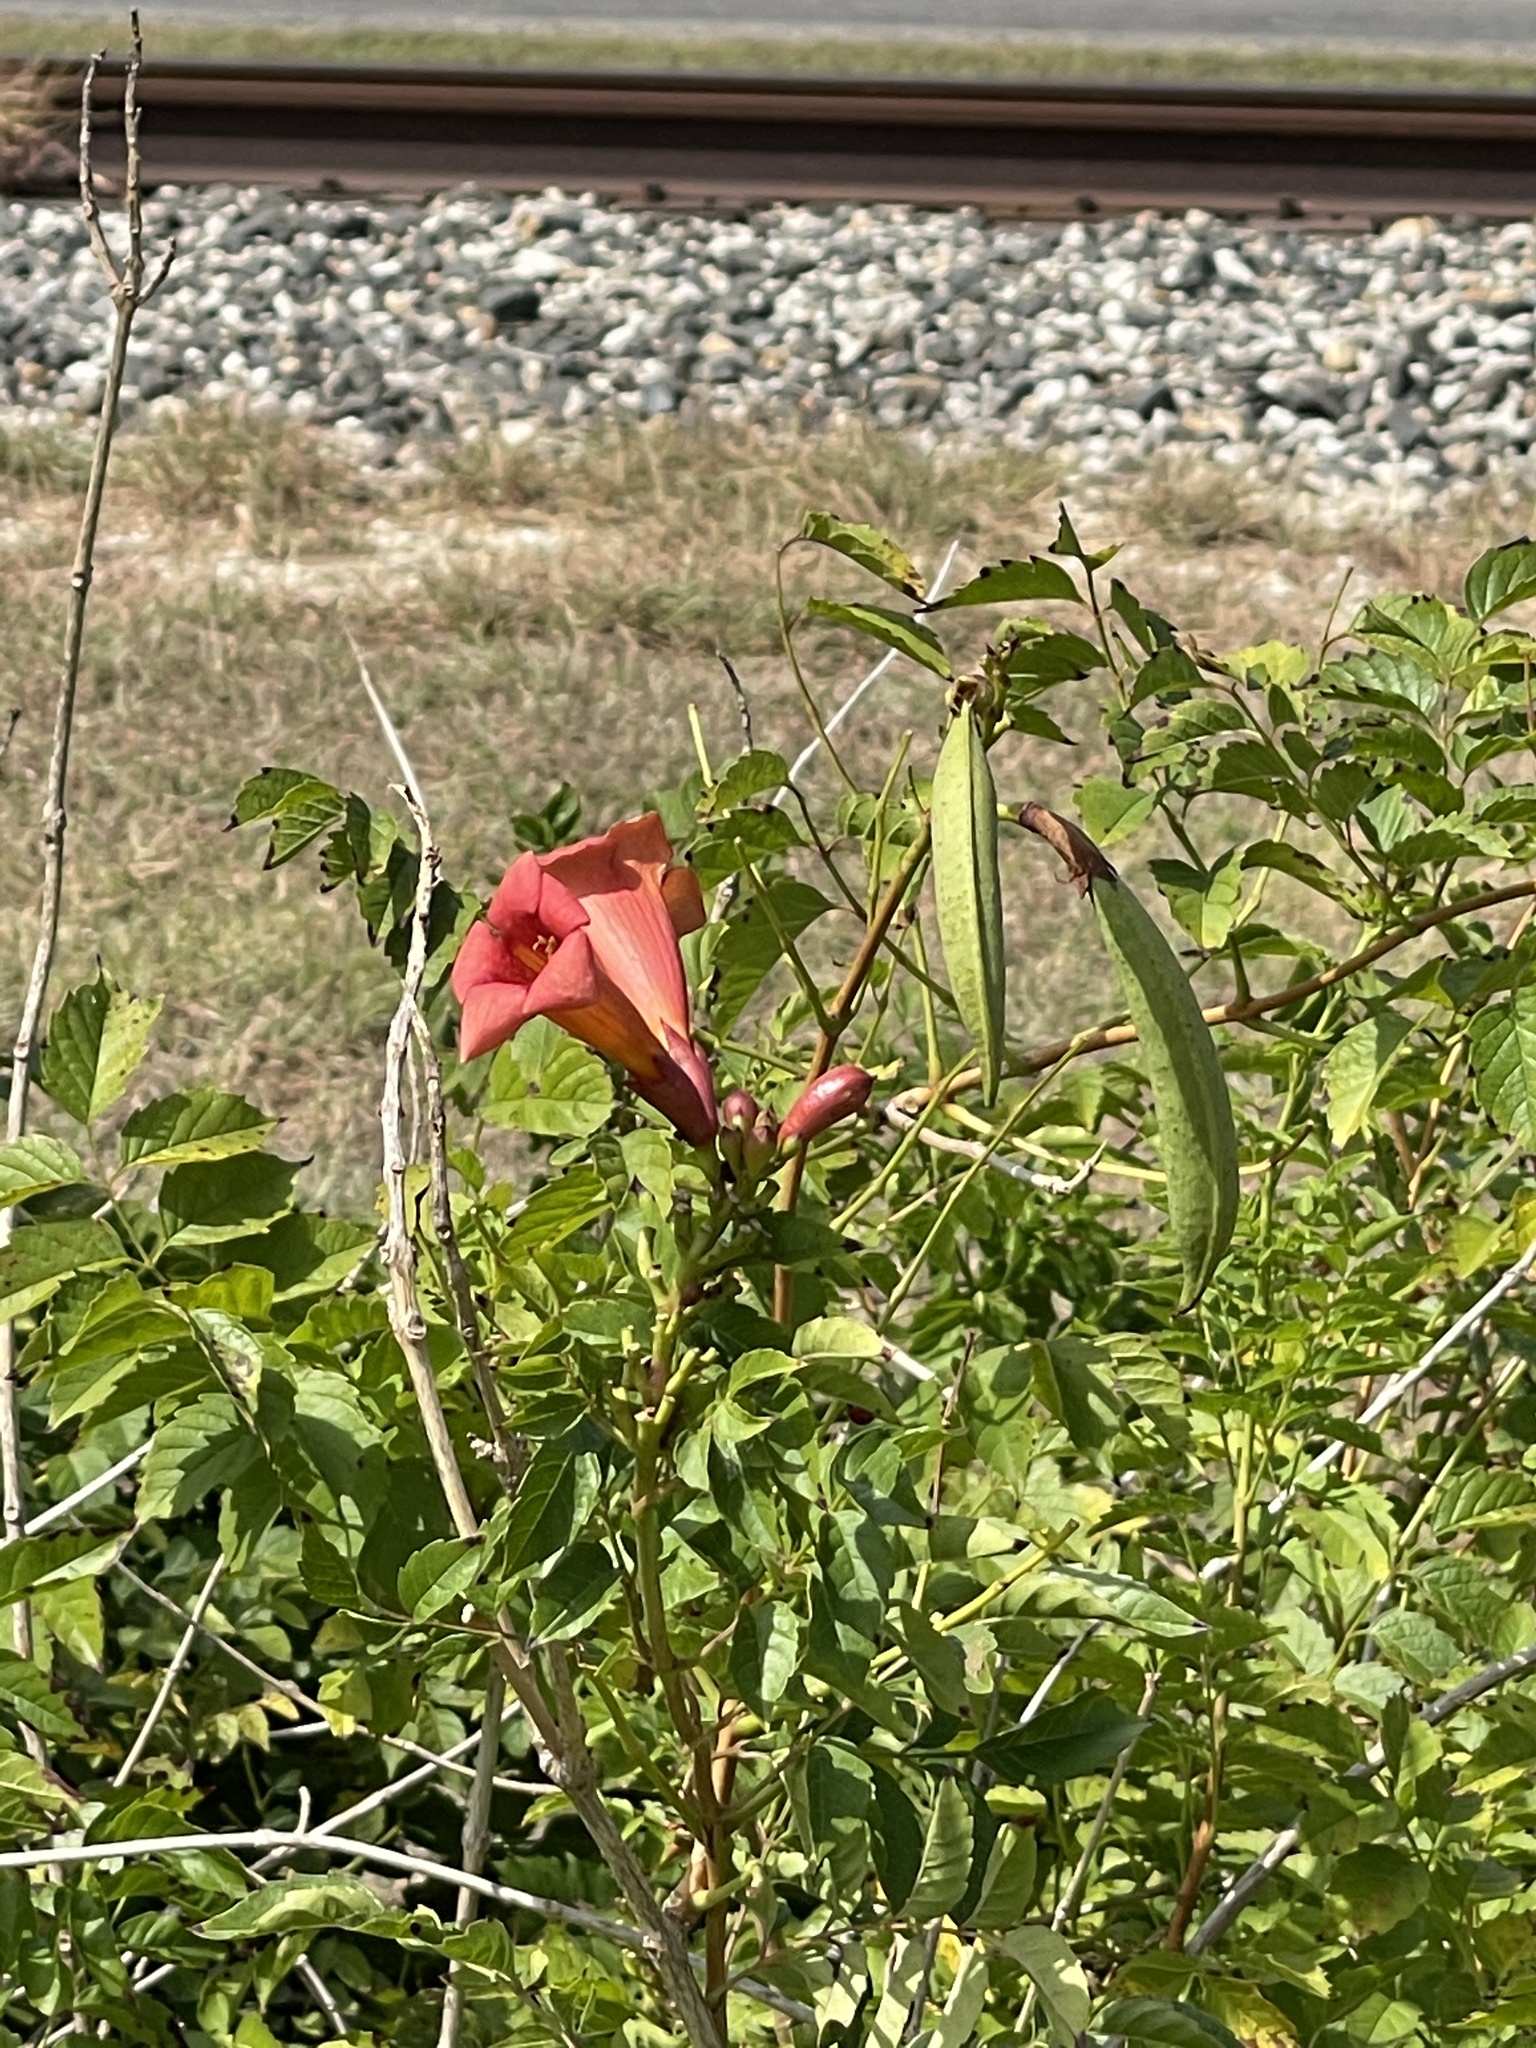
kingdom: Plantae
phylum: Tracheophyta
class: Magnoliopsida
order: Lamiales
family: Bignoniaceae
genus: Campsis
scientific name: Campsis radicans
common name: Trumpet-creeper
